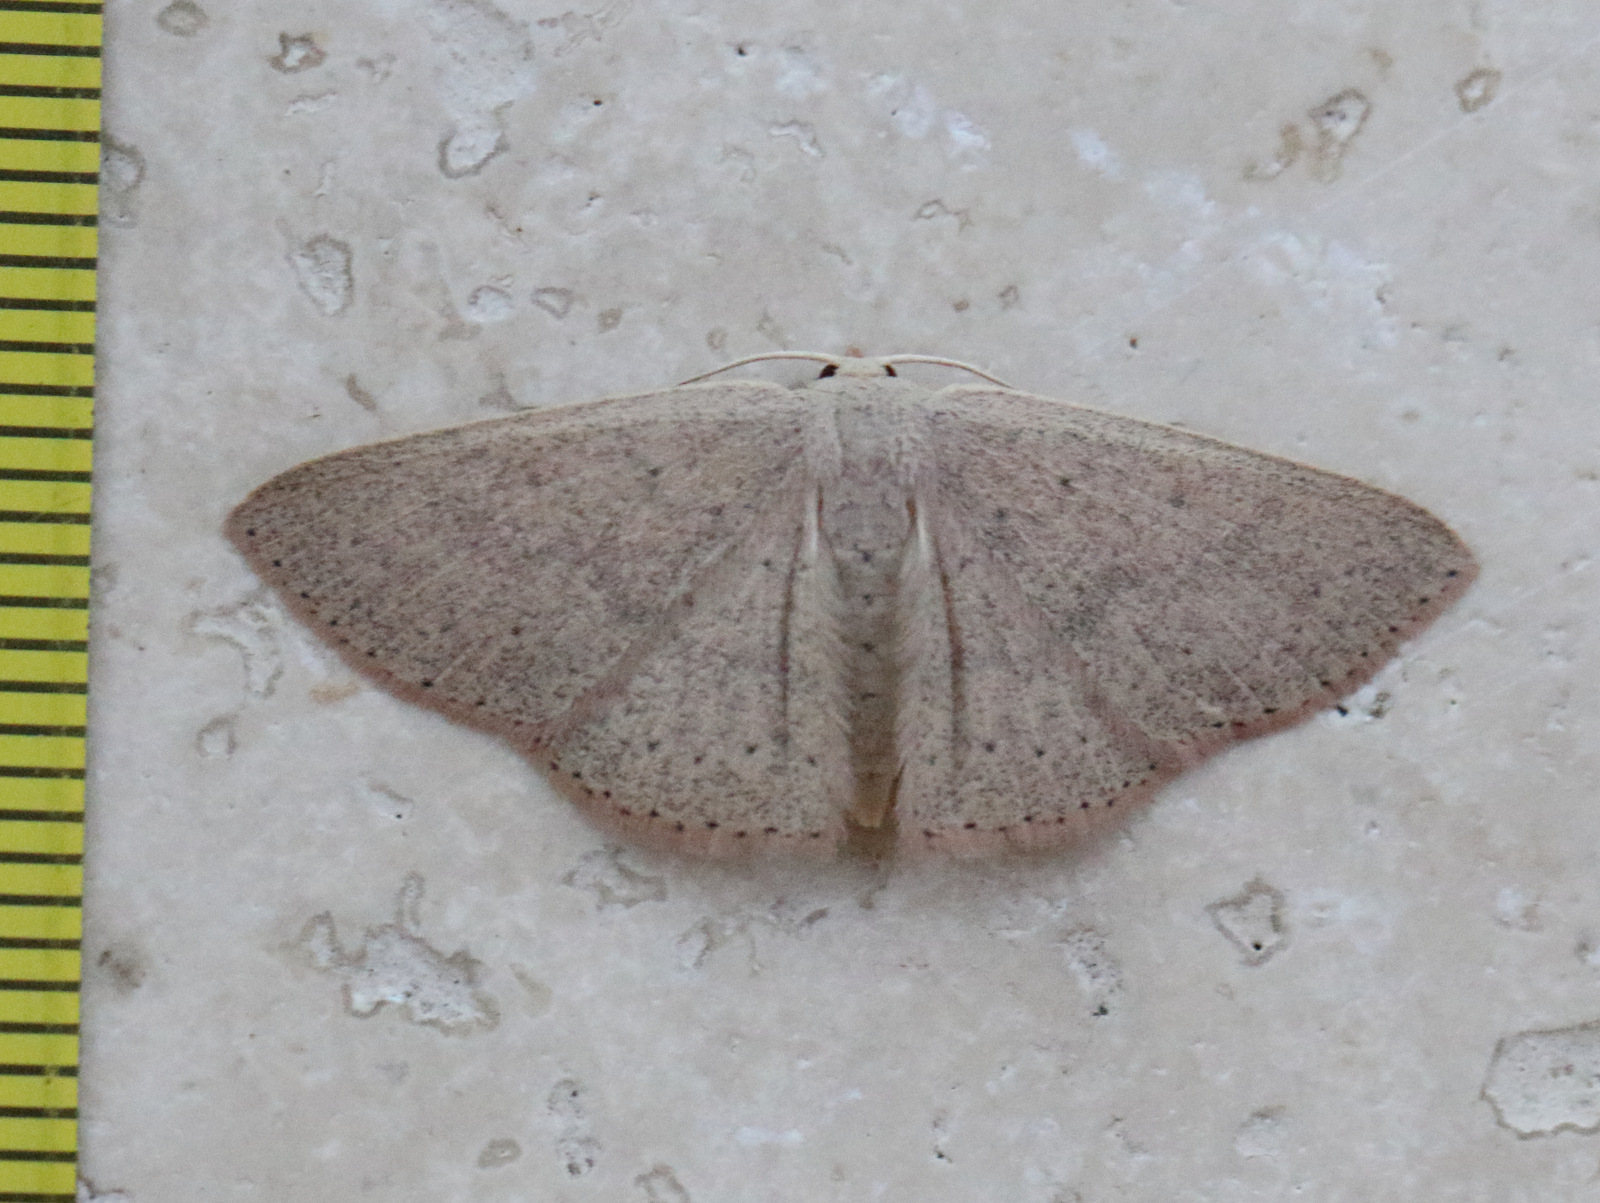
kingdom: Animalia
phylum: Arthropoda
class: Insecta
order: Lepidoptera
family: Geometridae
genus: Cyclophora
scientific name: Cyclophora obstataria
